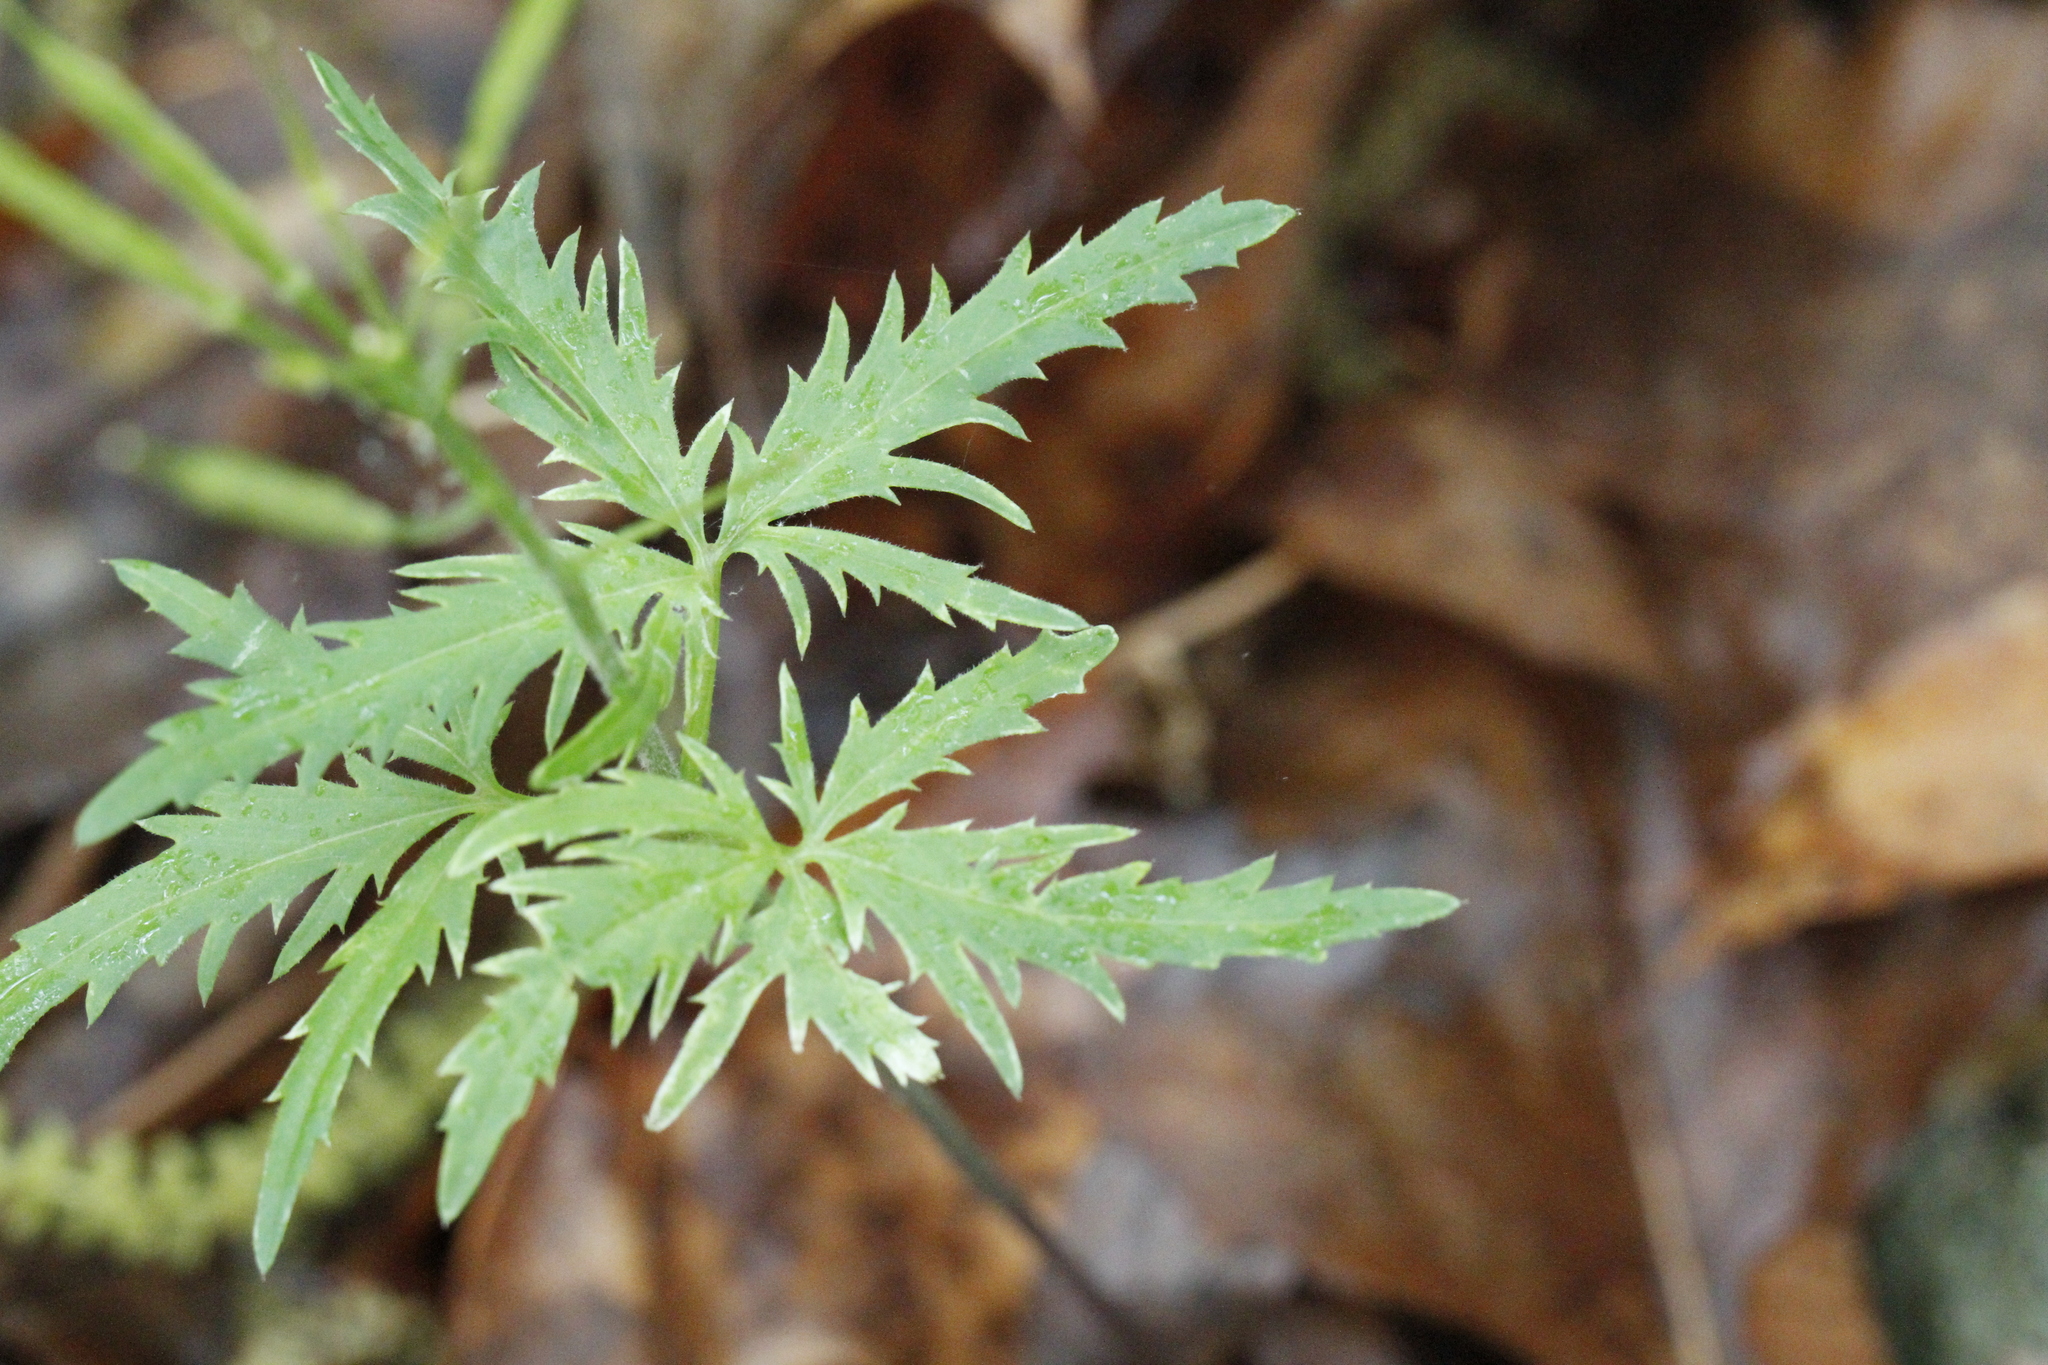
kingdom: Plantae
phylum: Tracheophyta
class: Magnoliopsida
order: Brassicales
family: Brassicaceae
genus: Cardamine
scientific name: Cardamine concatenata
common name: Cut-leaf toothcup
